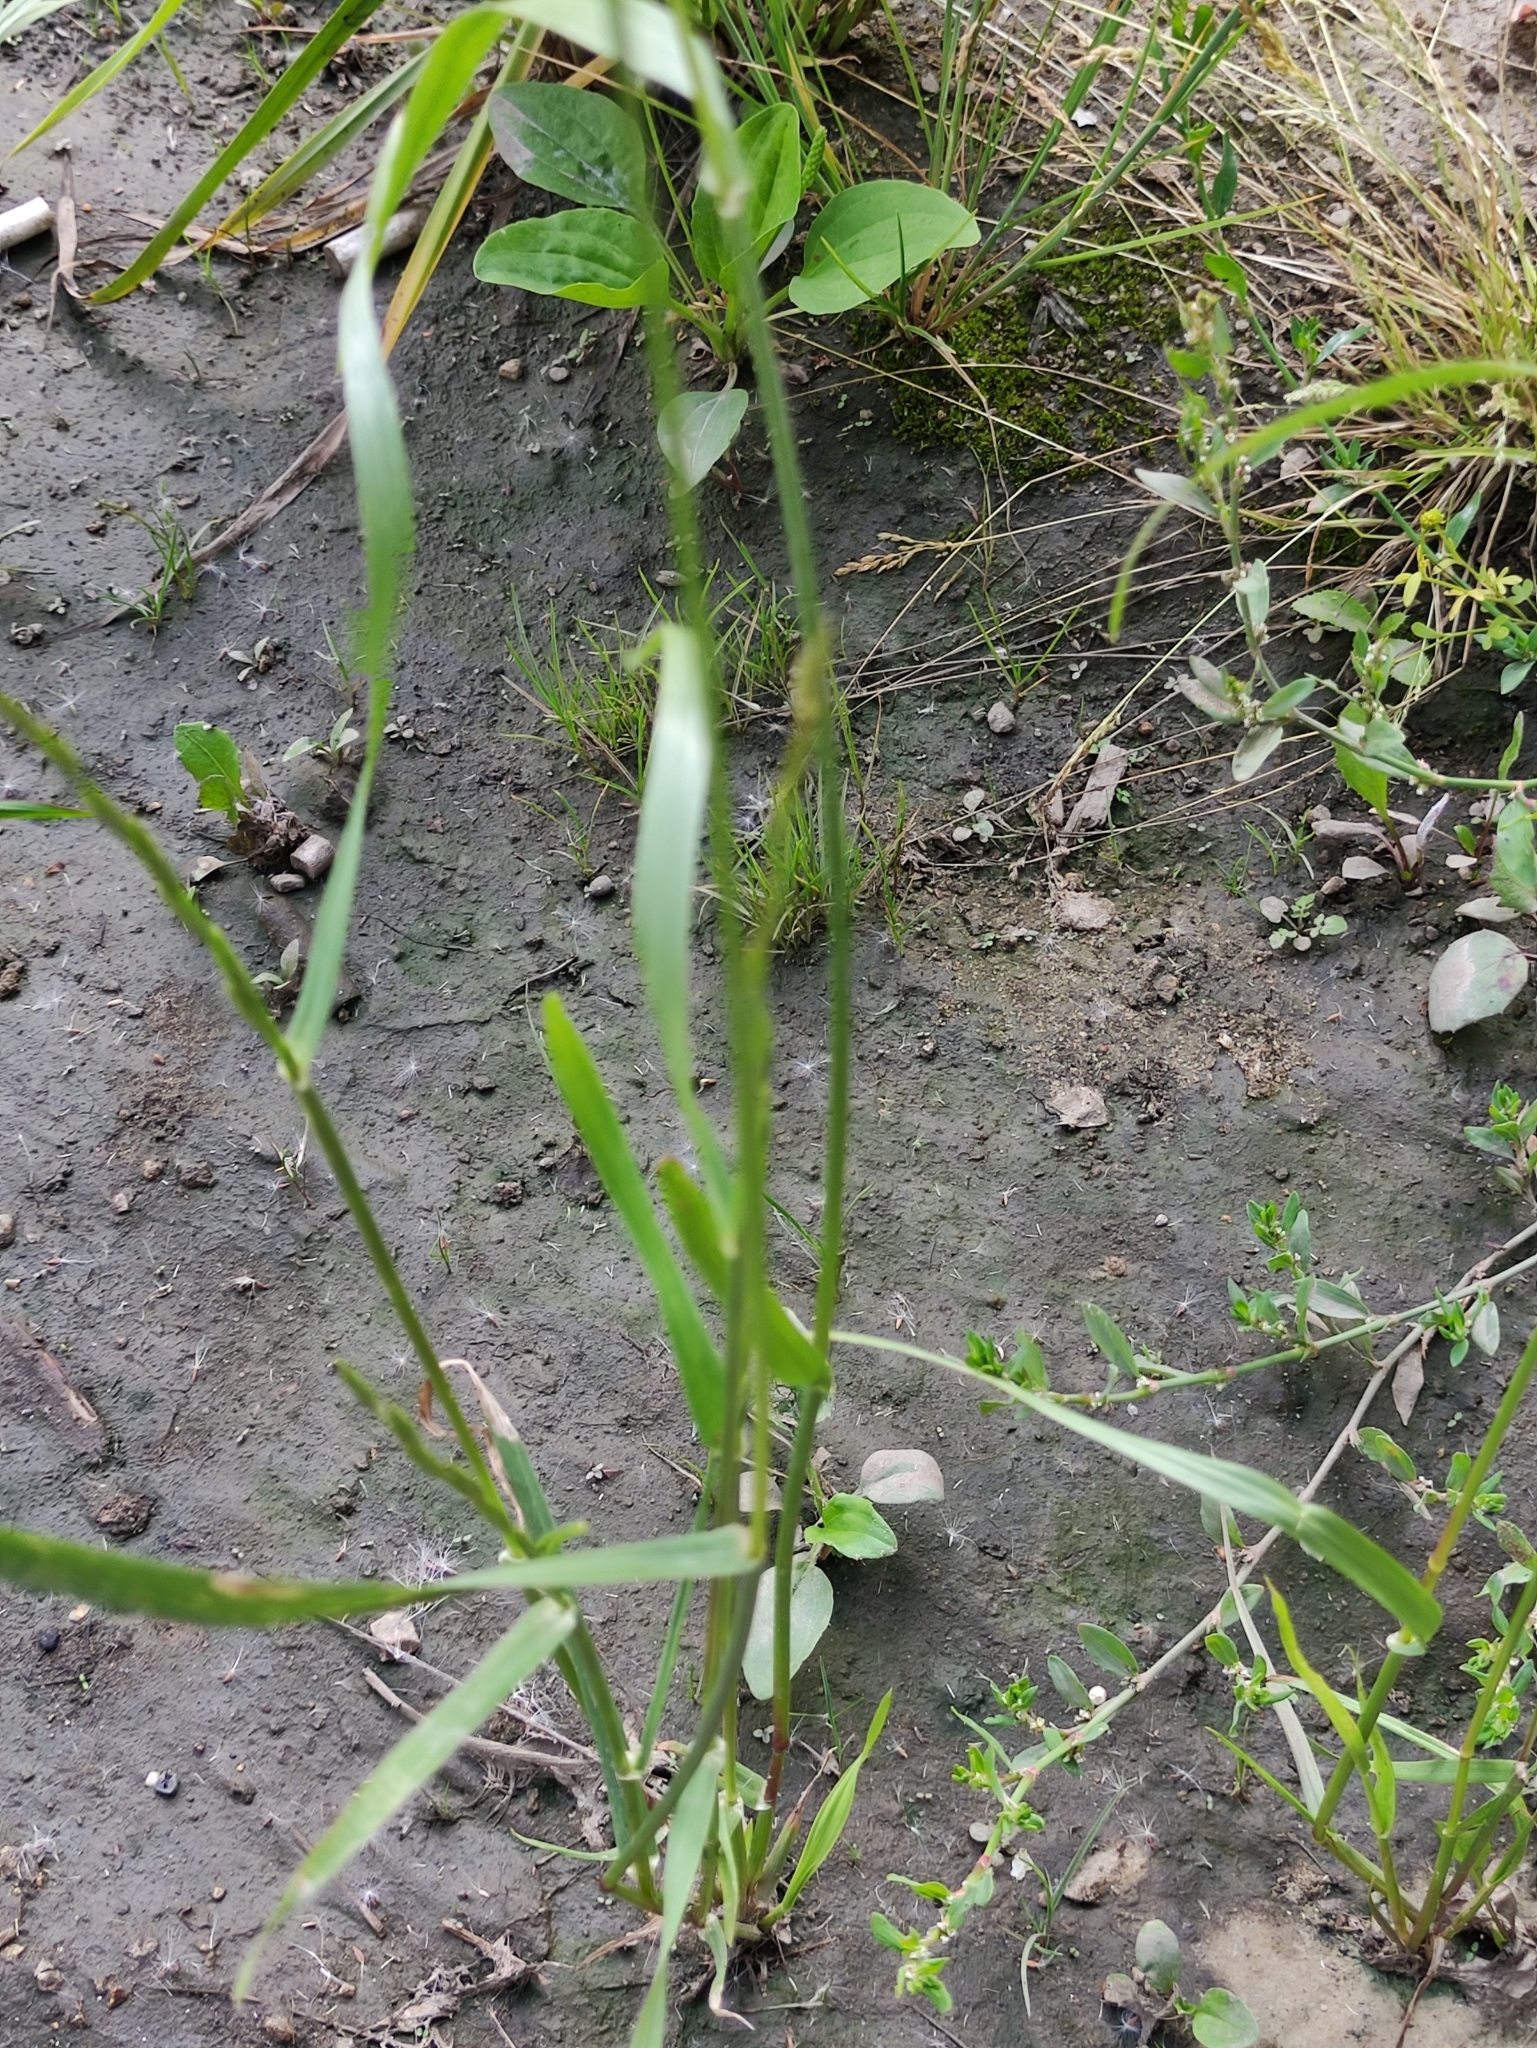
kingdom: Plantae
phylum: Tracheophyta
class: Liliopsida
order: Poales
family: Poaceae
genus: Lolium
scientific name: Lolium multiflorum
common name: Annual ryegrass
